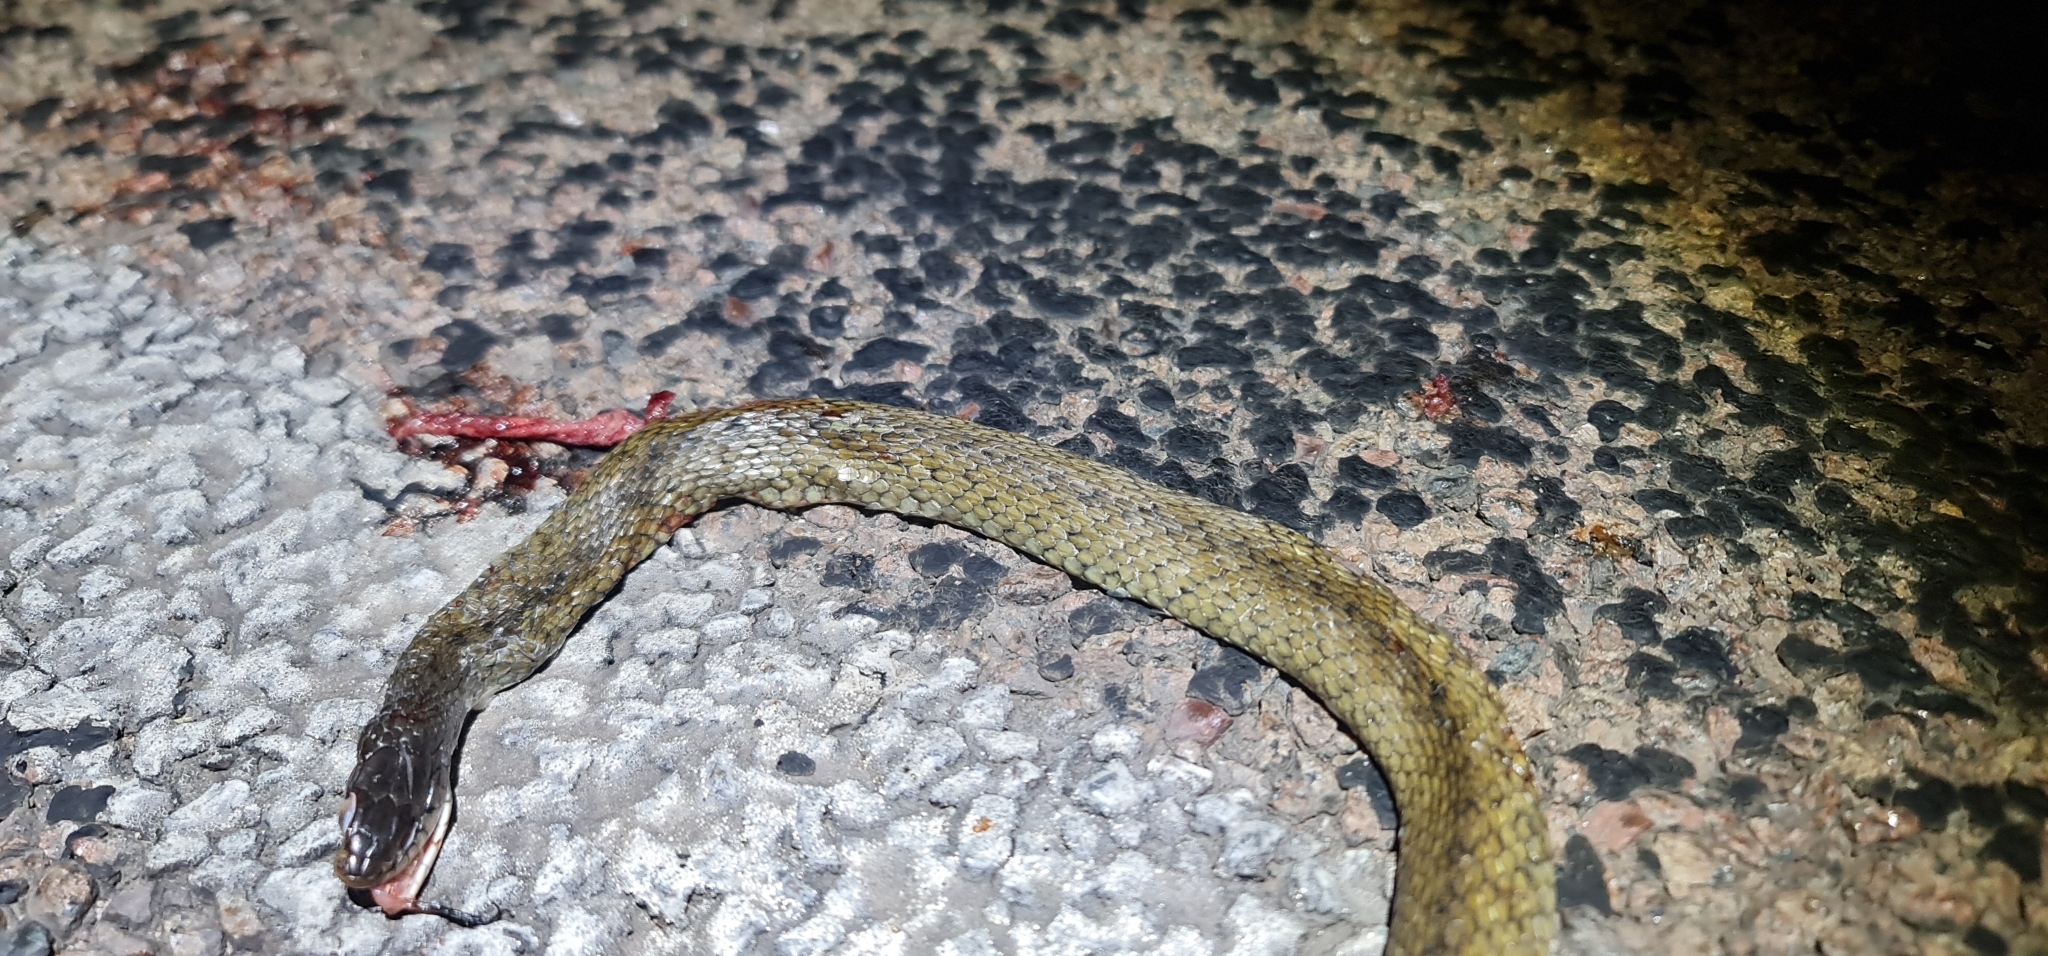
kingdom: Animalia
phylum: Chordata
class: Squamata
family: Colubridae
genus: Tropidonophis
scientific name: Tropidonophis mairii
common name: Common keelback
